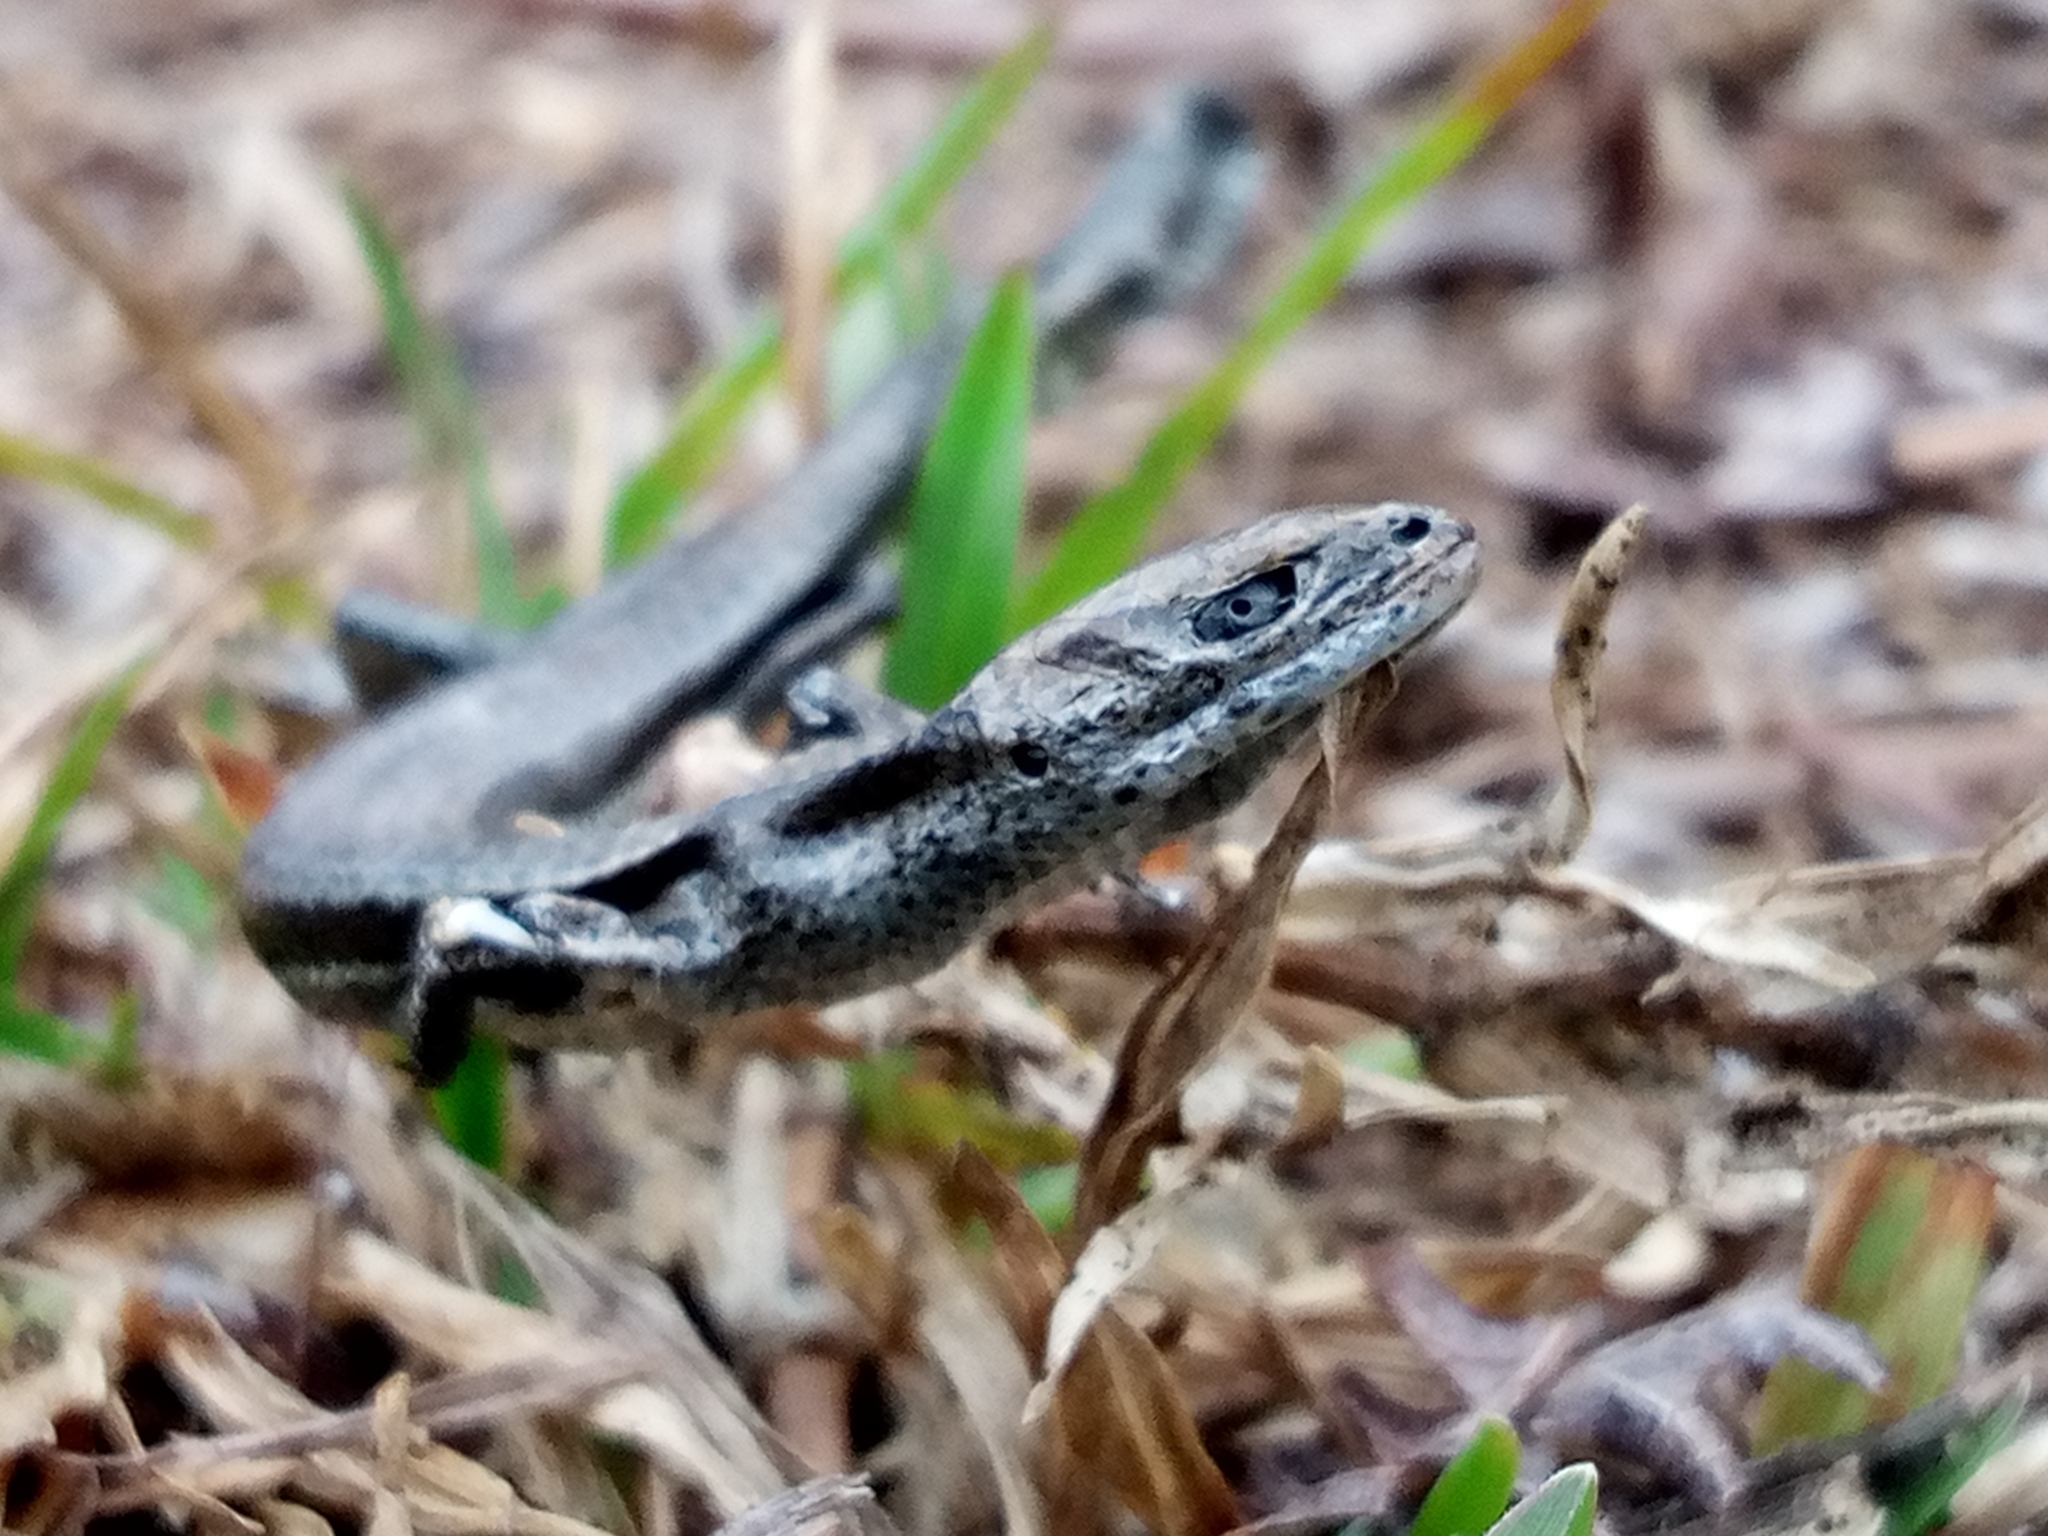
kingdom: Animalia
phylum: Chordata
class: Squamata
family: Scincidae
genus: Lampropholis
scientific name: Lampropholis delicata
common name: Plague skink
